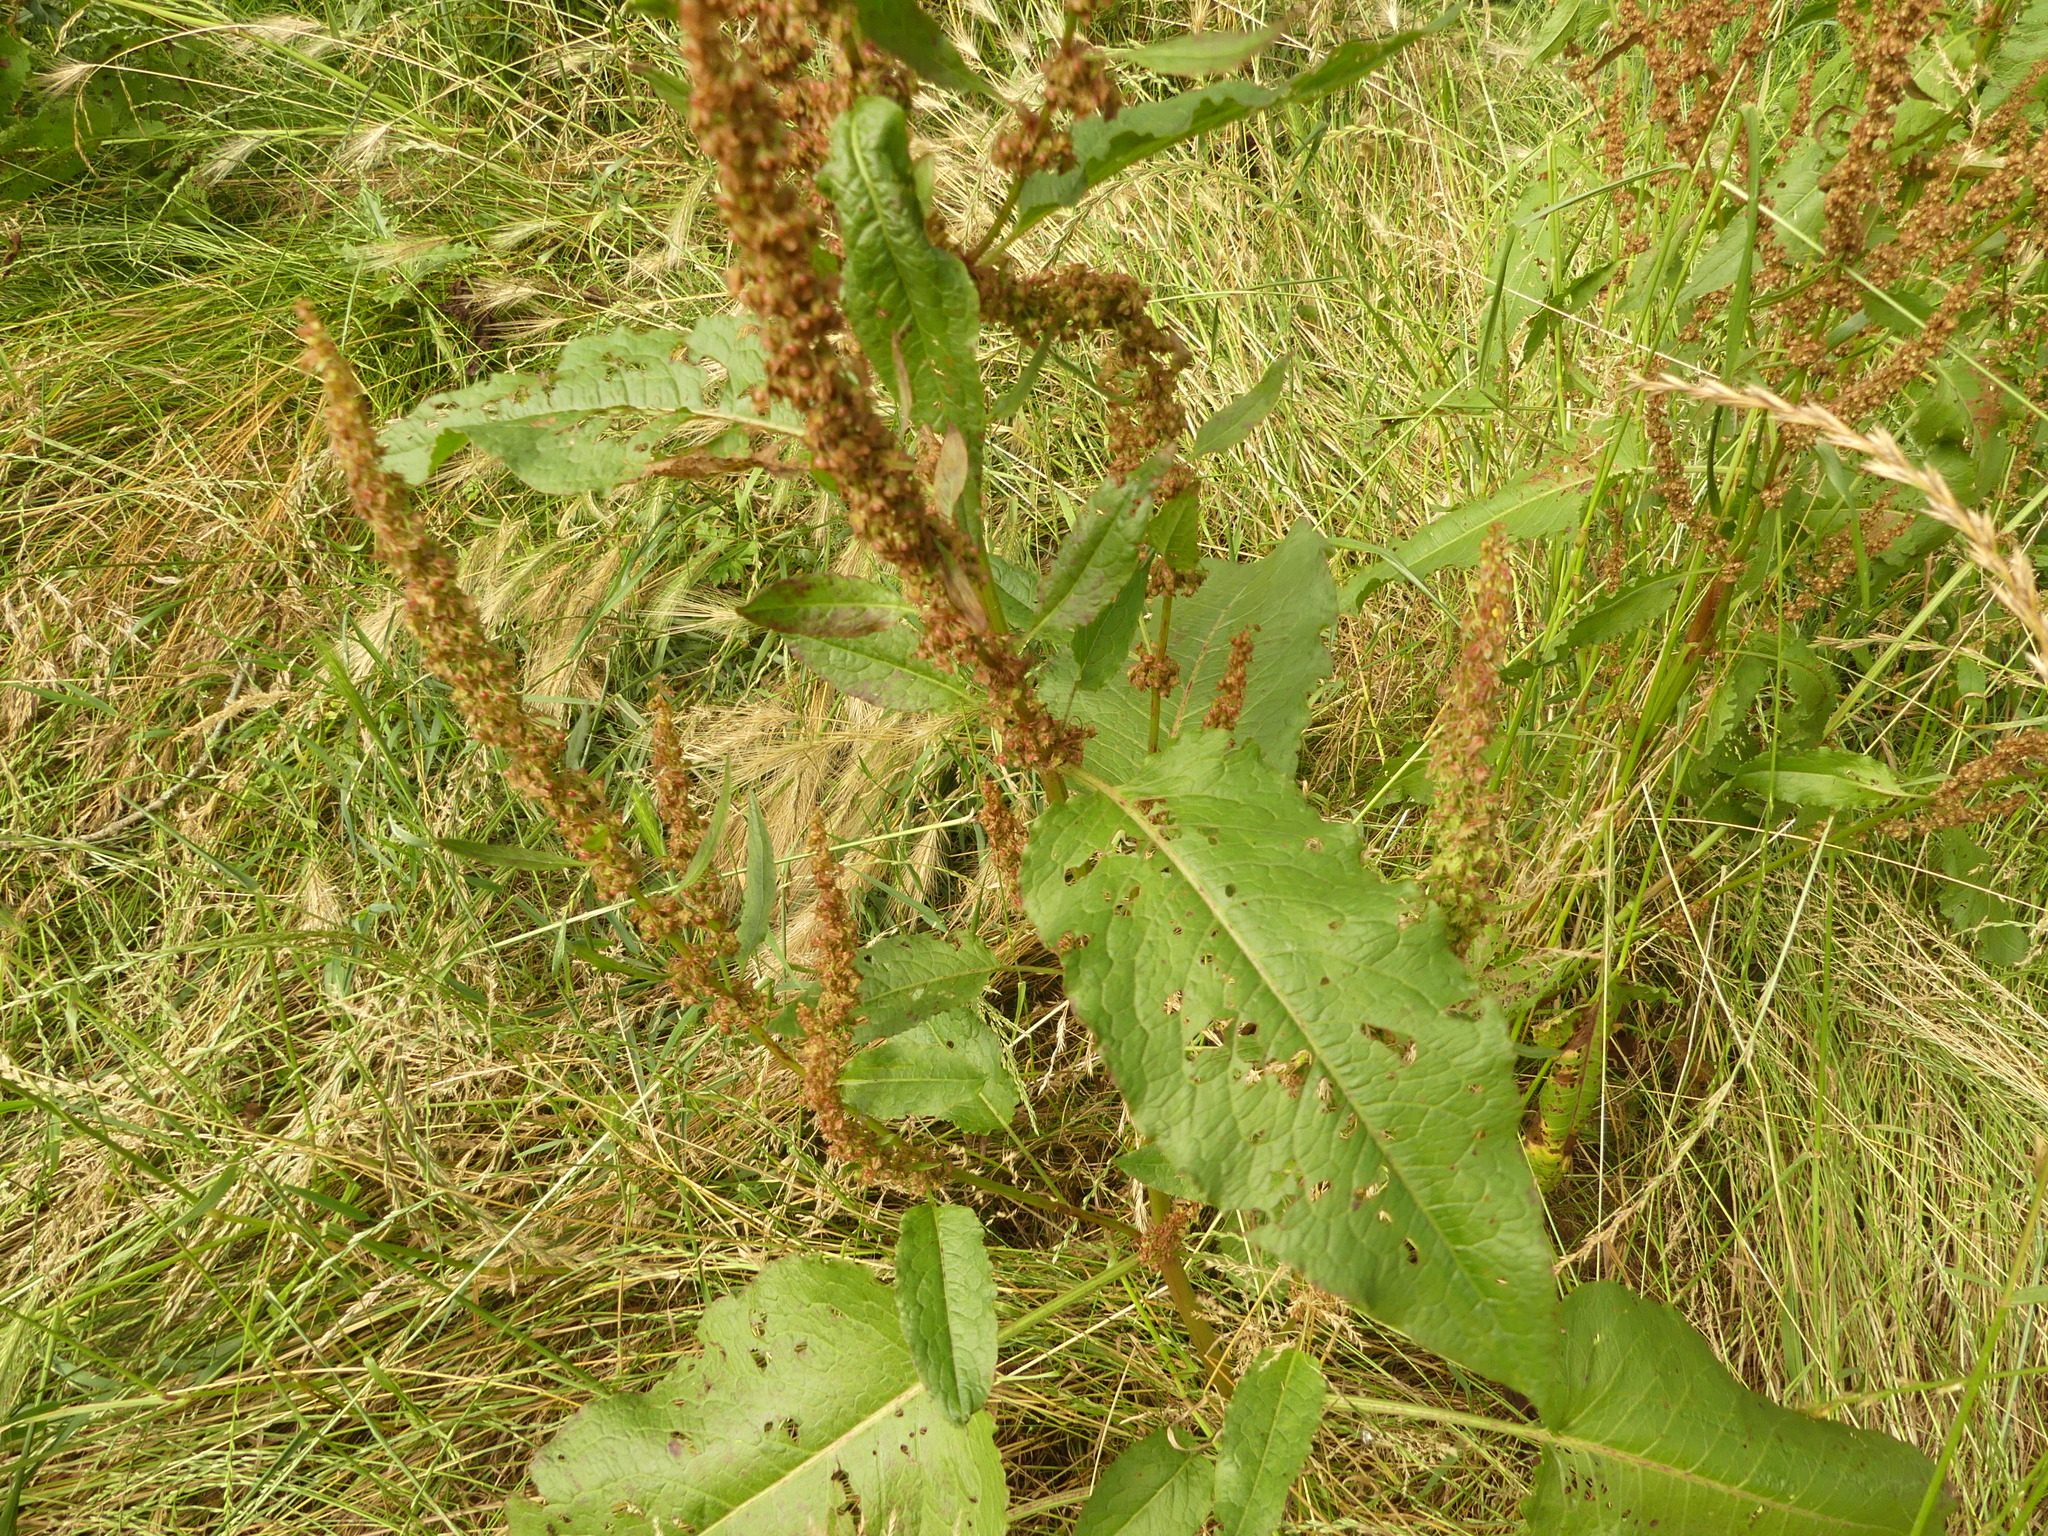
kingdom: Plantae
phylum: Tracheophyta
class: Magnoliopsida
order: Caryophyllales
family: Polygonaceae
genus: Rumex
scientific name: Rumex obtusifolius
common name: Bitter dock
